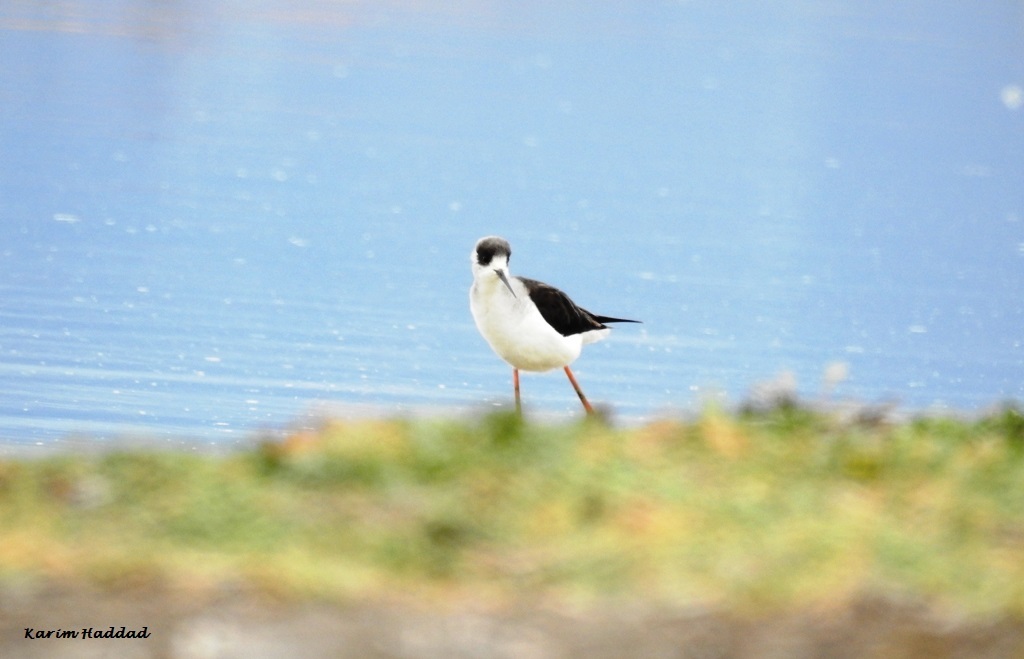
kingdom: Animalia
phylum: Chordata
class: Aves
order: Charadriiformes
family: Recurvirostridae
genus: Himantopus
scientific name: Himantopus himantopus
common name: Black-winged stilt
